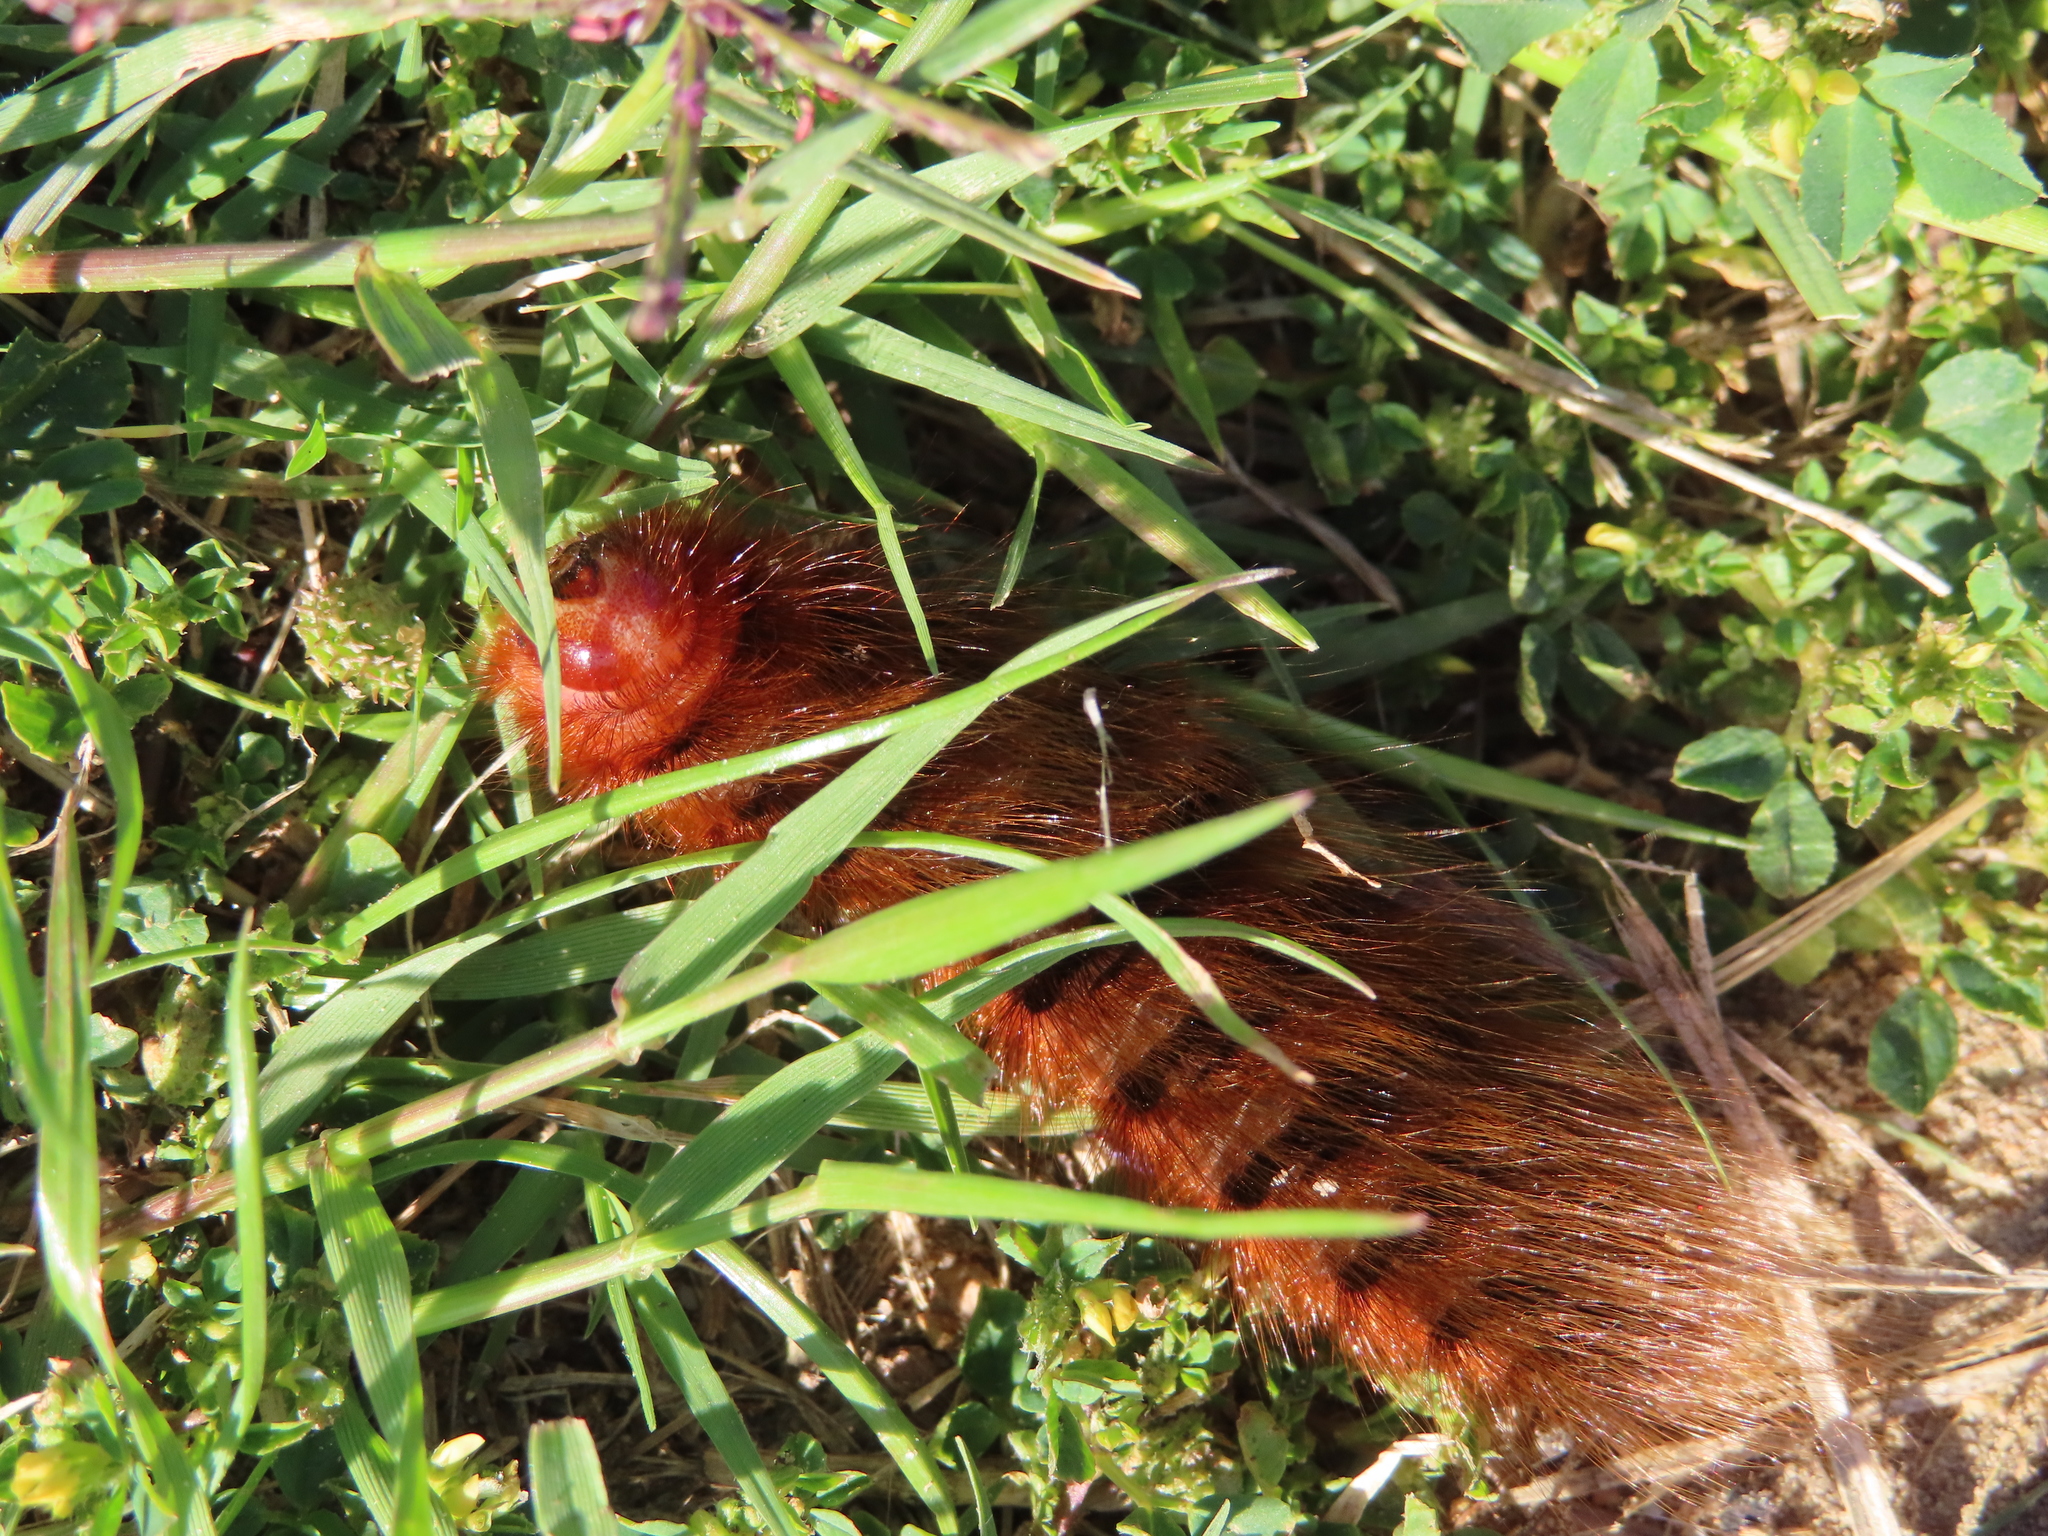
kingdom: Animalia
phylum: Arthropoda
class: Insecta
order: Lepidoptera
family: Eupterotidae
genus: Phyllalia
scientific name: Phyllalia patens
